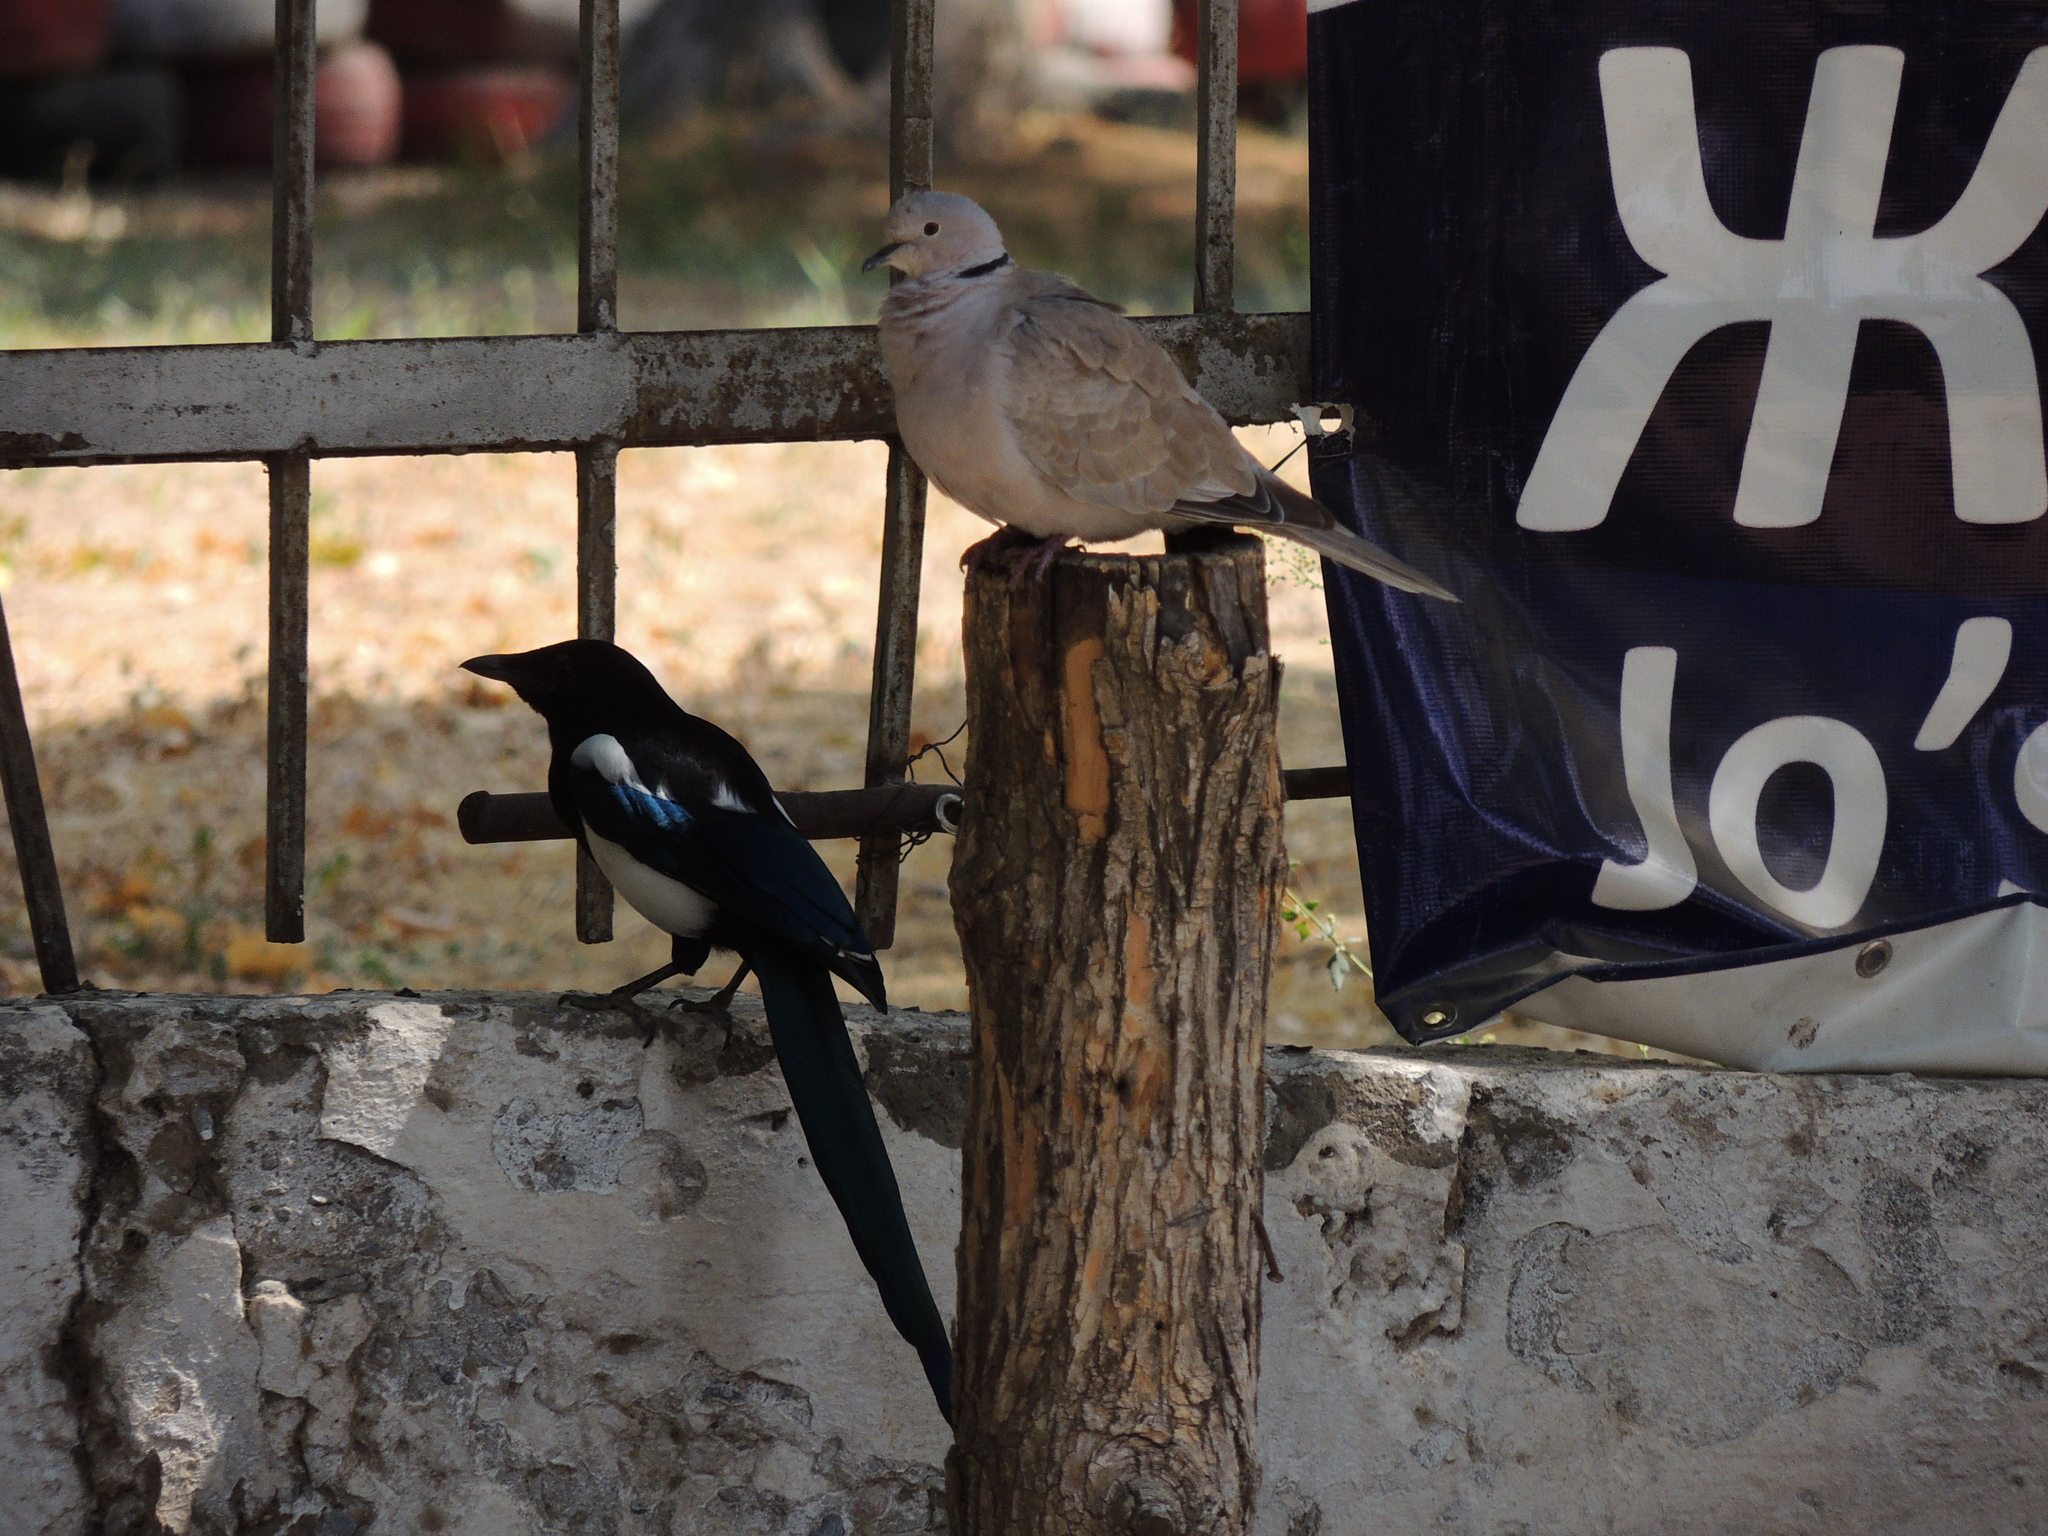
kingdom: Animalia
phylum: Chordata
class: Aves
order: Passeriformes
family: Corvidae
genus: Pica
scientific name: Pica pica
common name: Eurasian magpie
